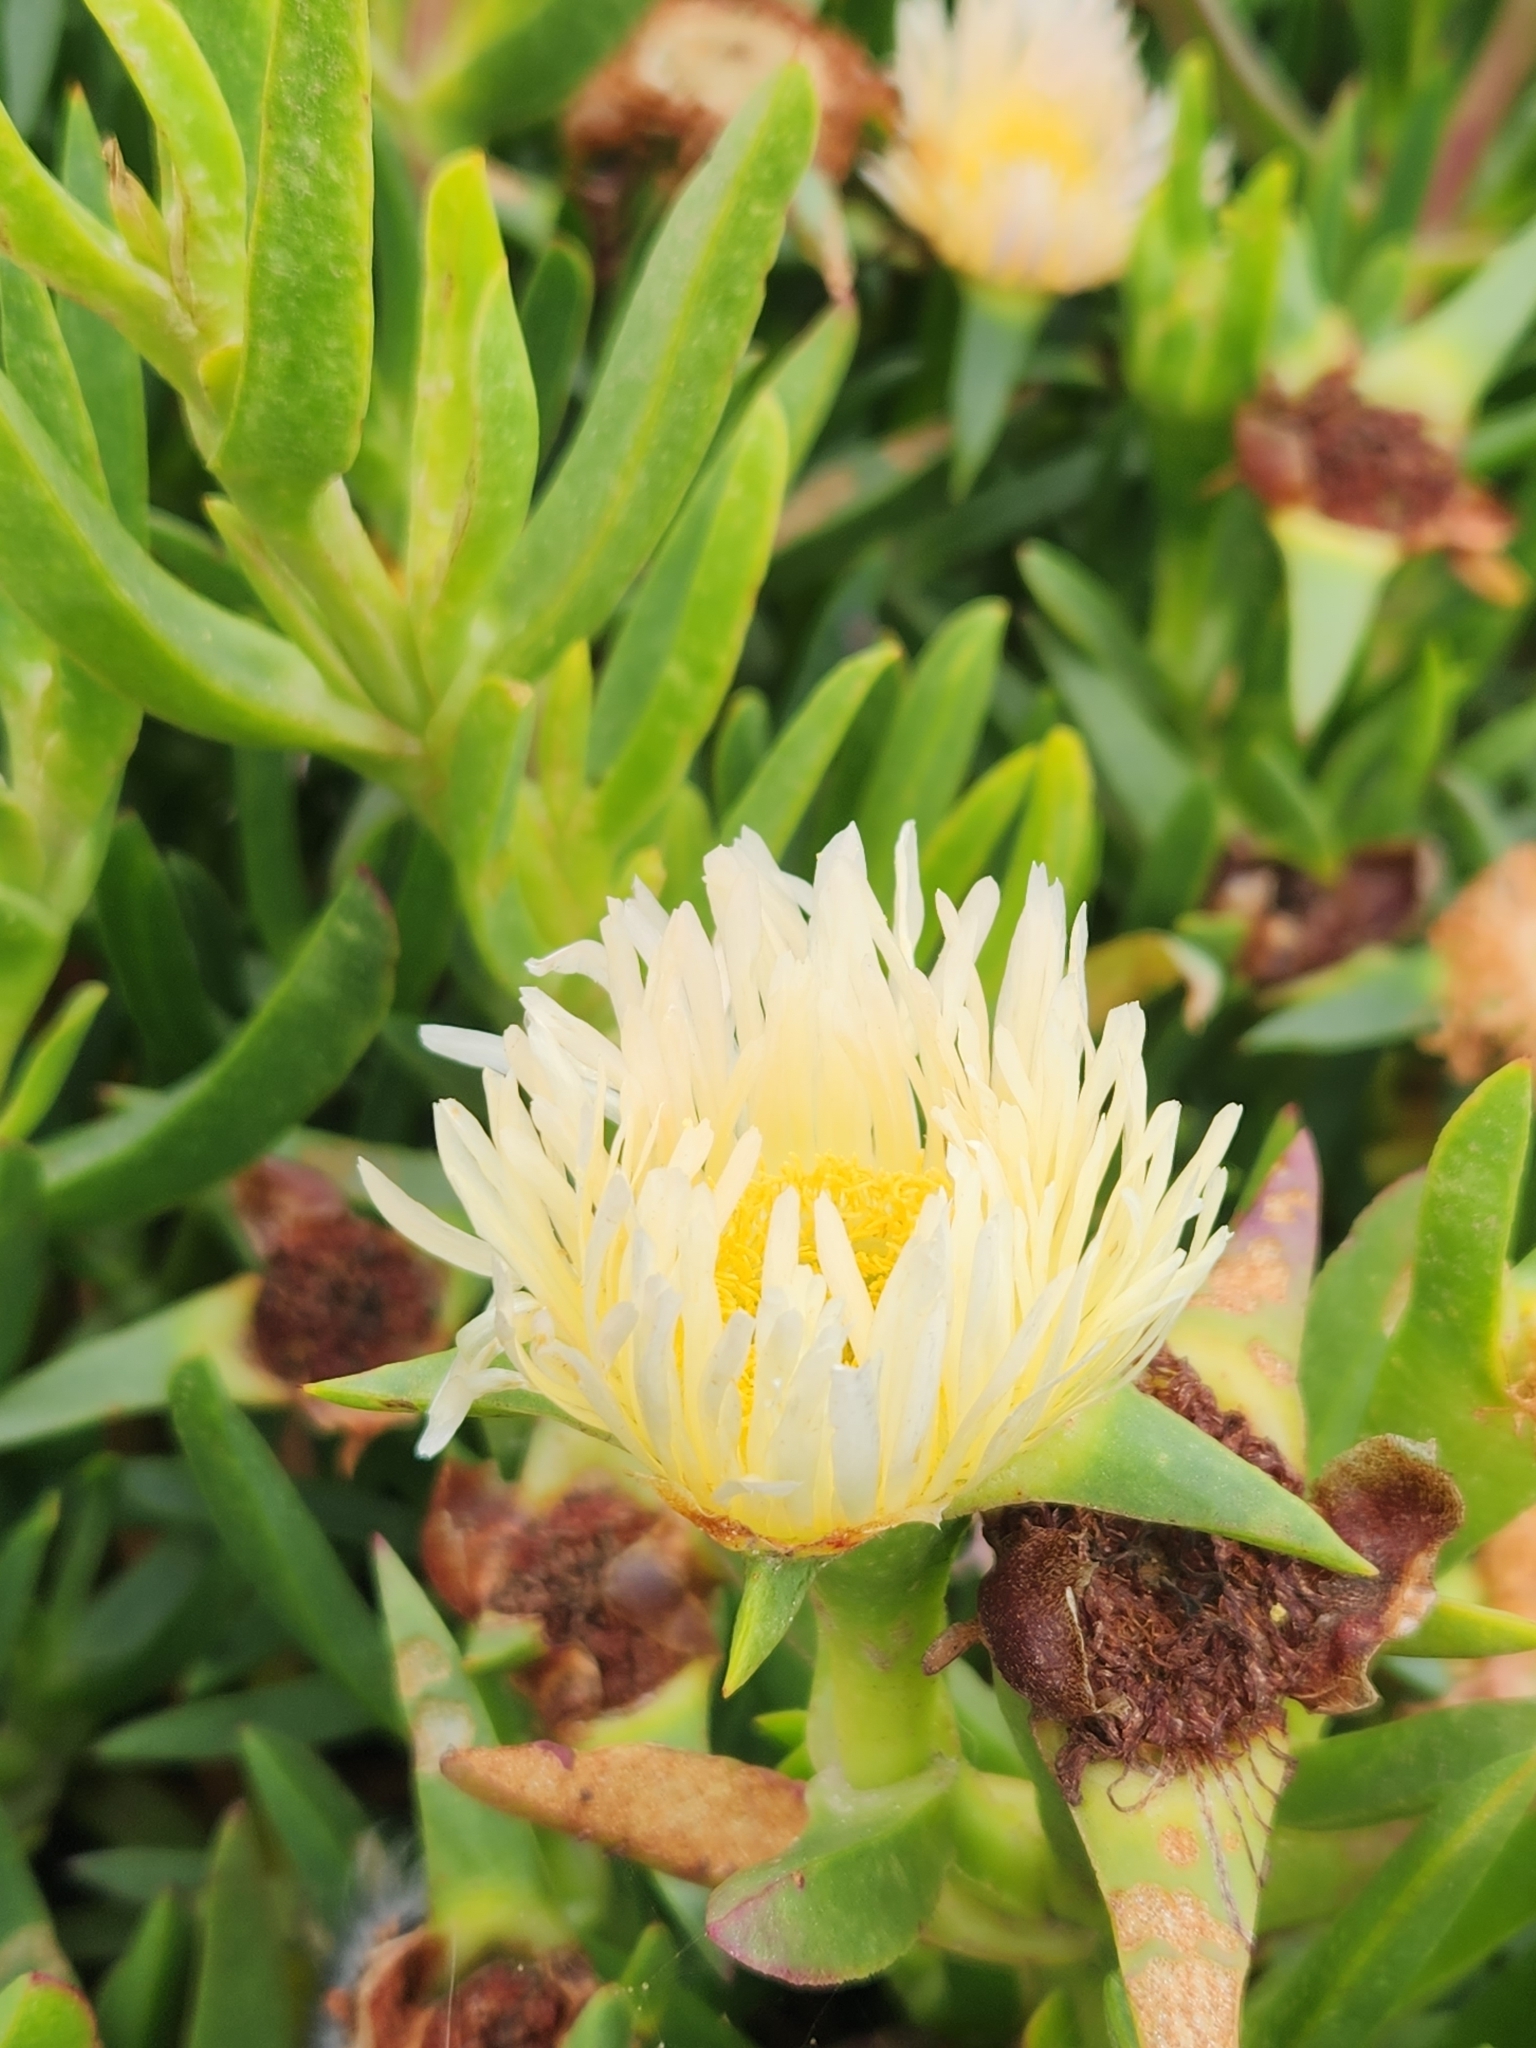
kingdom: Plantae
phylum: Tracheophyta
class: Magnoliopsida
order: Caryophyllales
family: Aizoaceae
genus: Carpobrotus
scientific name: Carpobrotus edulis
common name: Hottentot-fig
